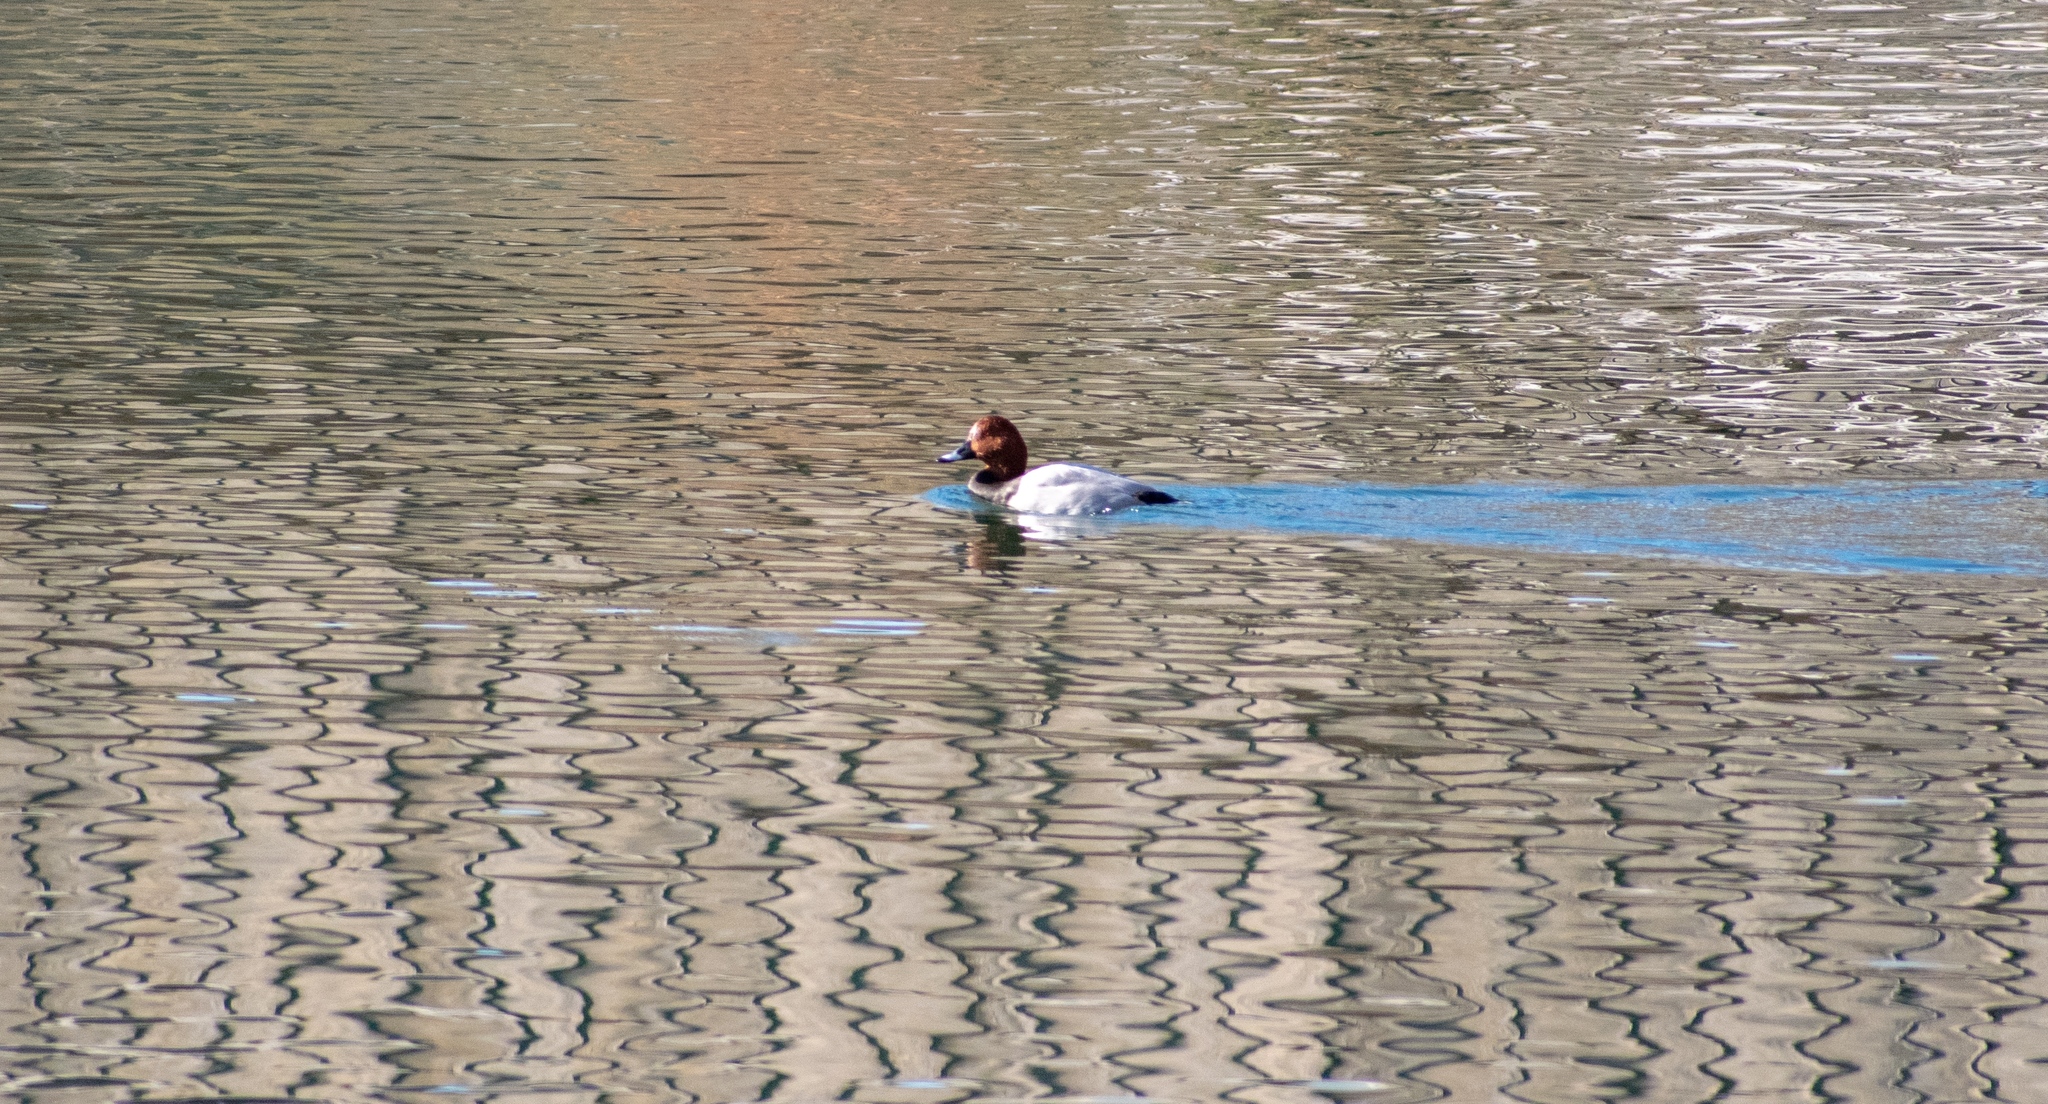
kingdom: Animalia
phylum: Chordata
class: Aves
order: Anseriformes
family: Anatidae
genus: Aythya
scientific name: Aythya ferina
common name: Common pochard
